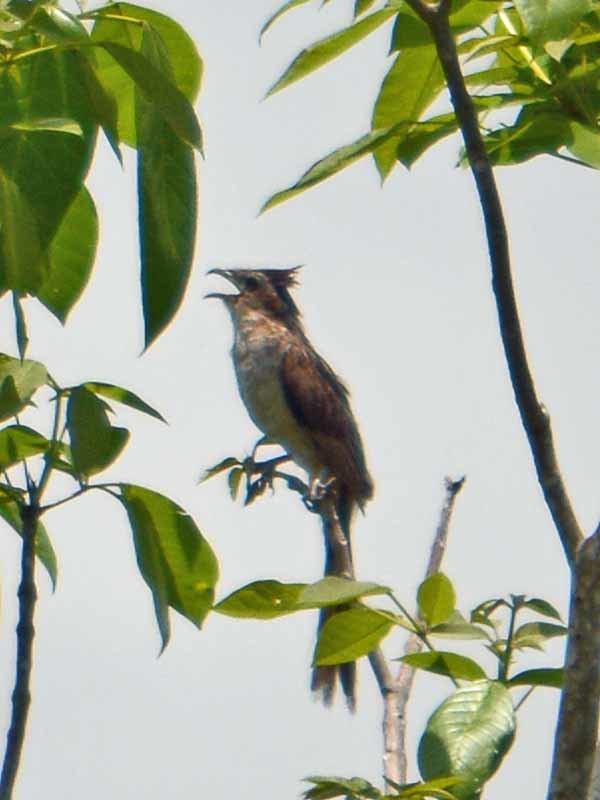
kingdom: Animalia
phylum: Chordata
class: Aves
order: Cuculiformes
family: Cuculidae
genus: Tapera
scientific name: Tapera naevia
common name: Striped cuckoo
